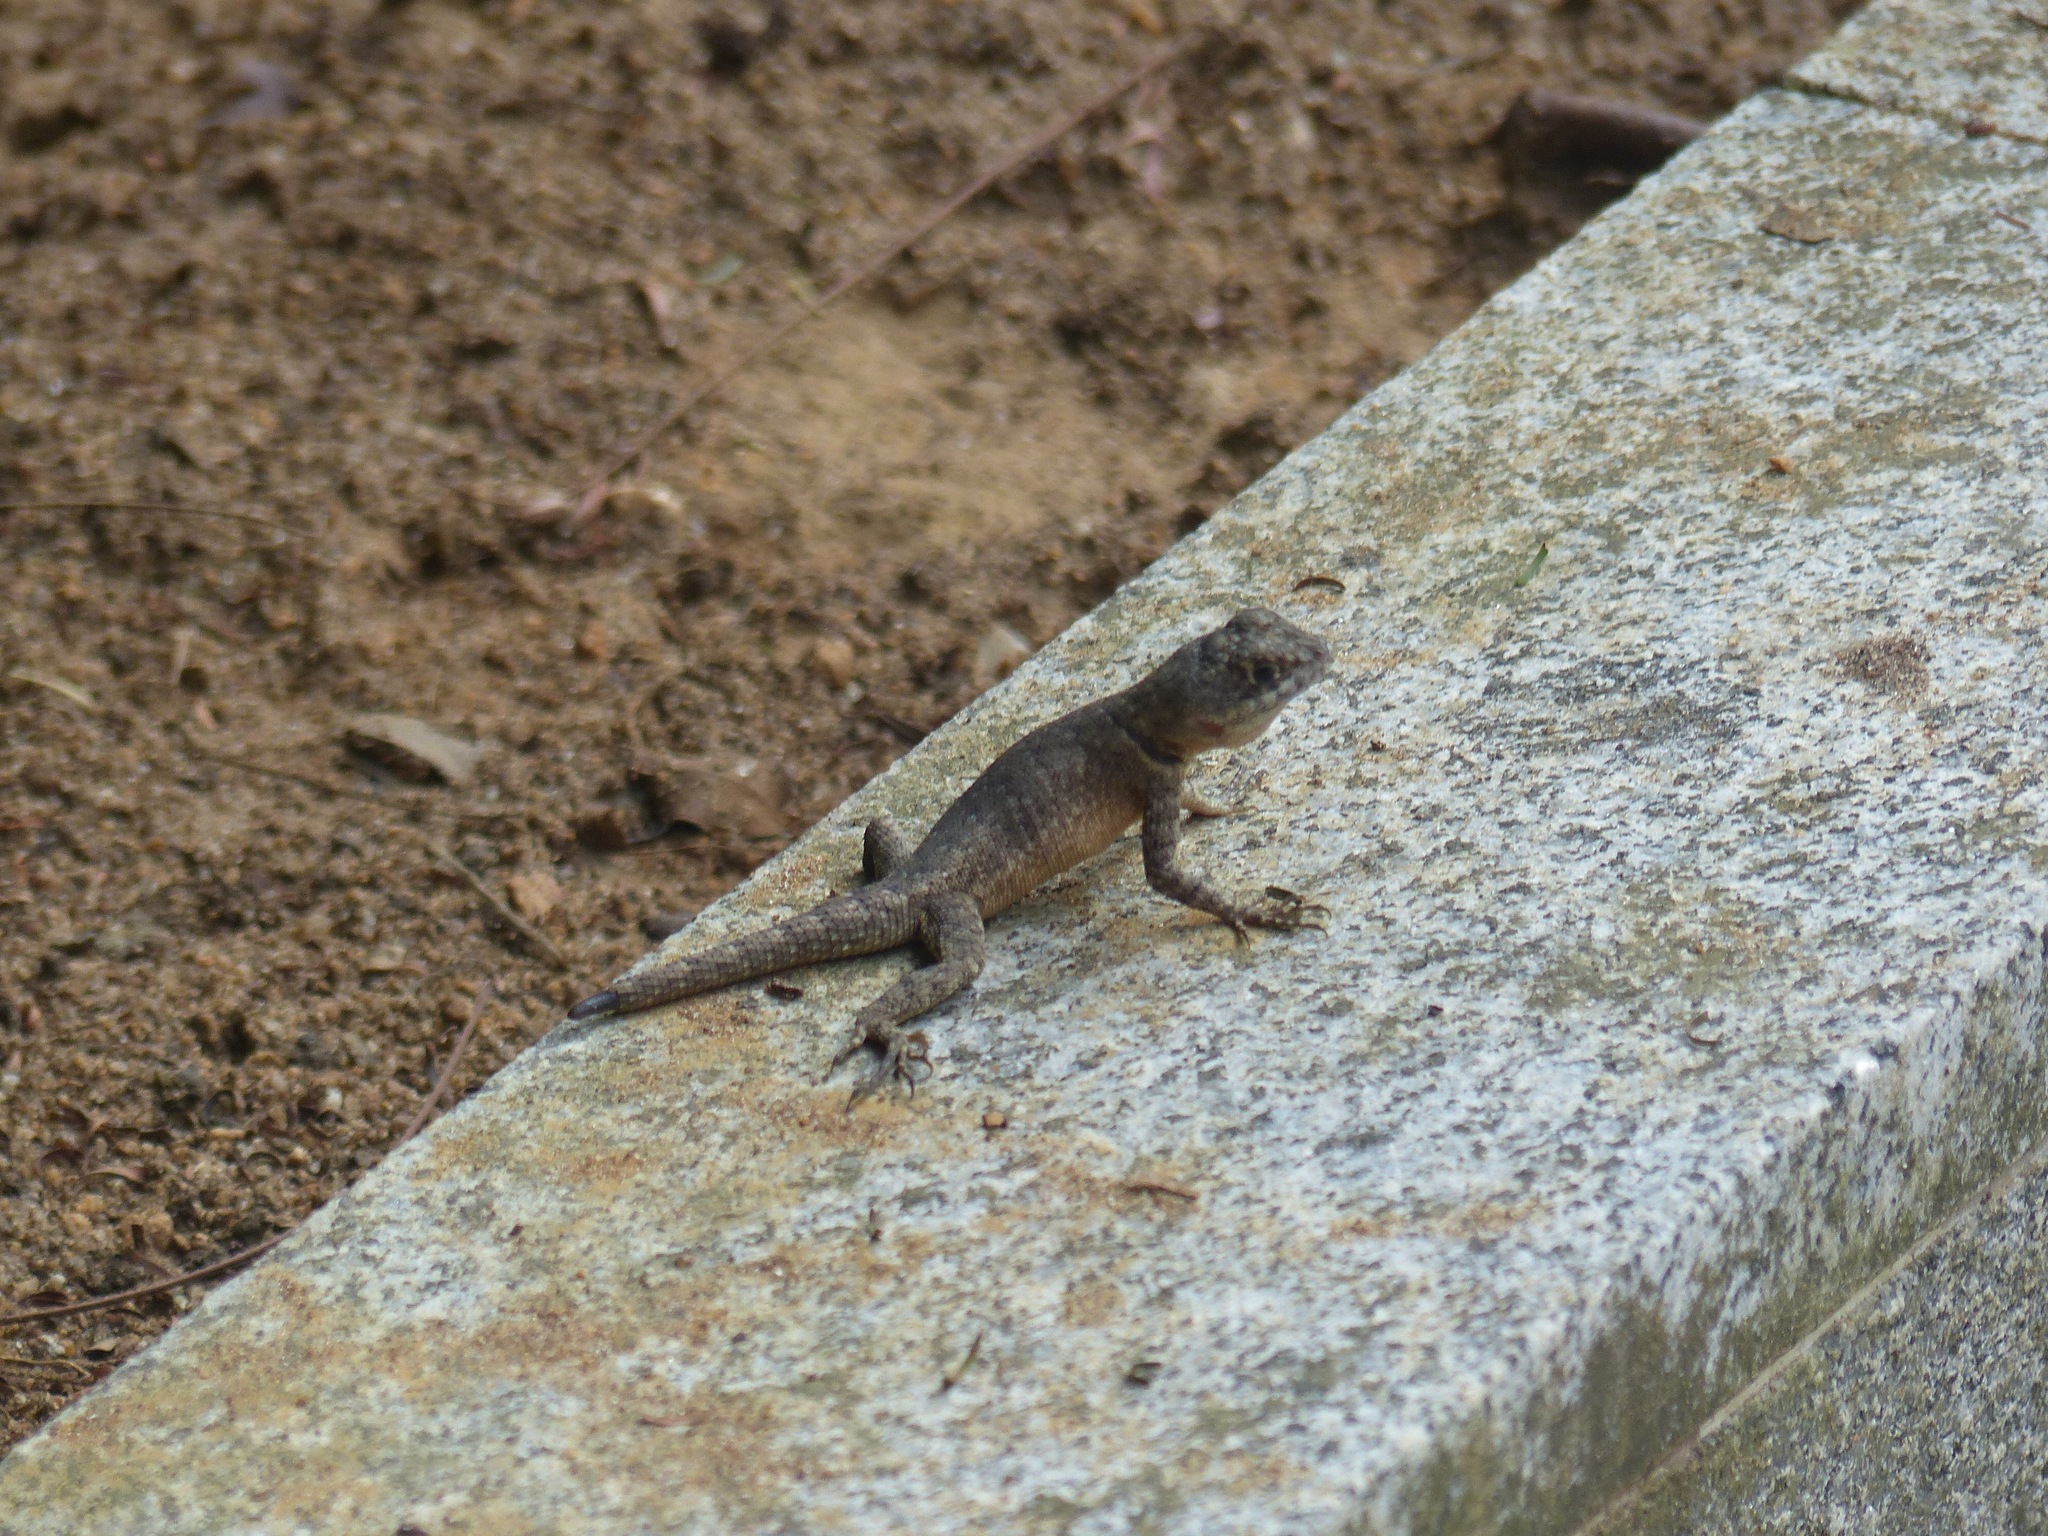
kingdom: Animalia
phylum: Chordata
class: Squamata
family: Tropiduridae
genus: Tropidurus
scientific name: Tropidurus hispidus
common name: Peters' lava lizard
